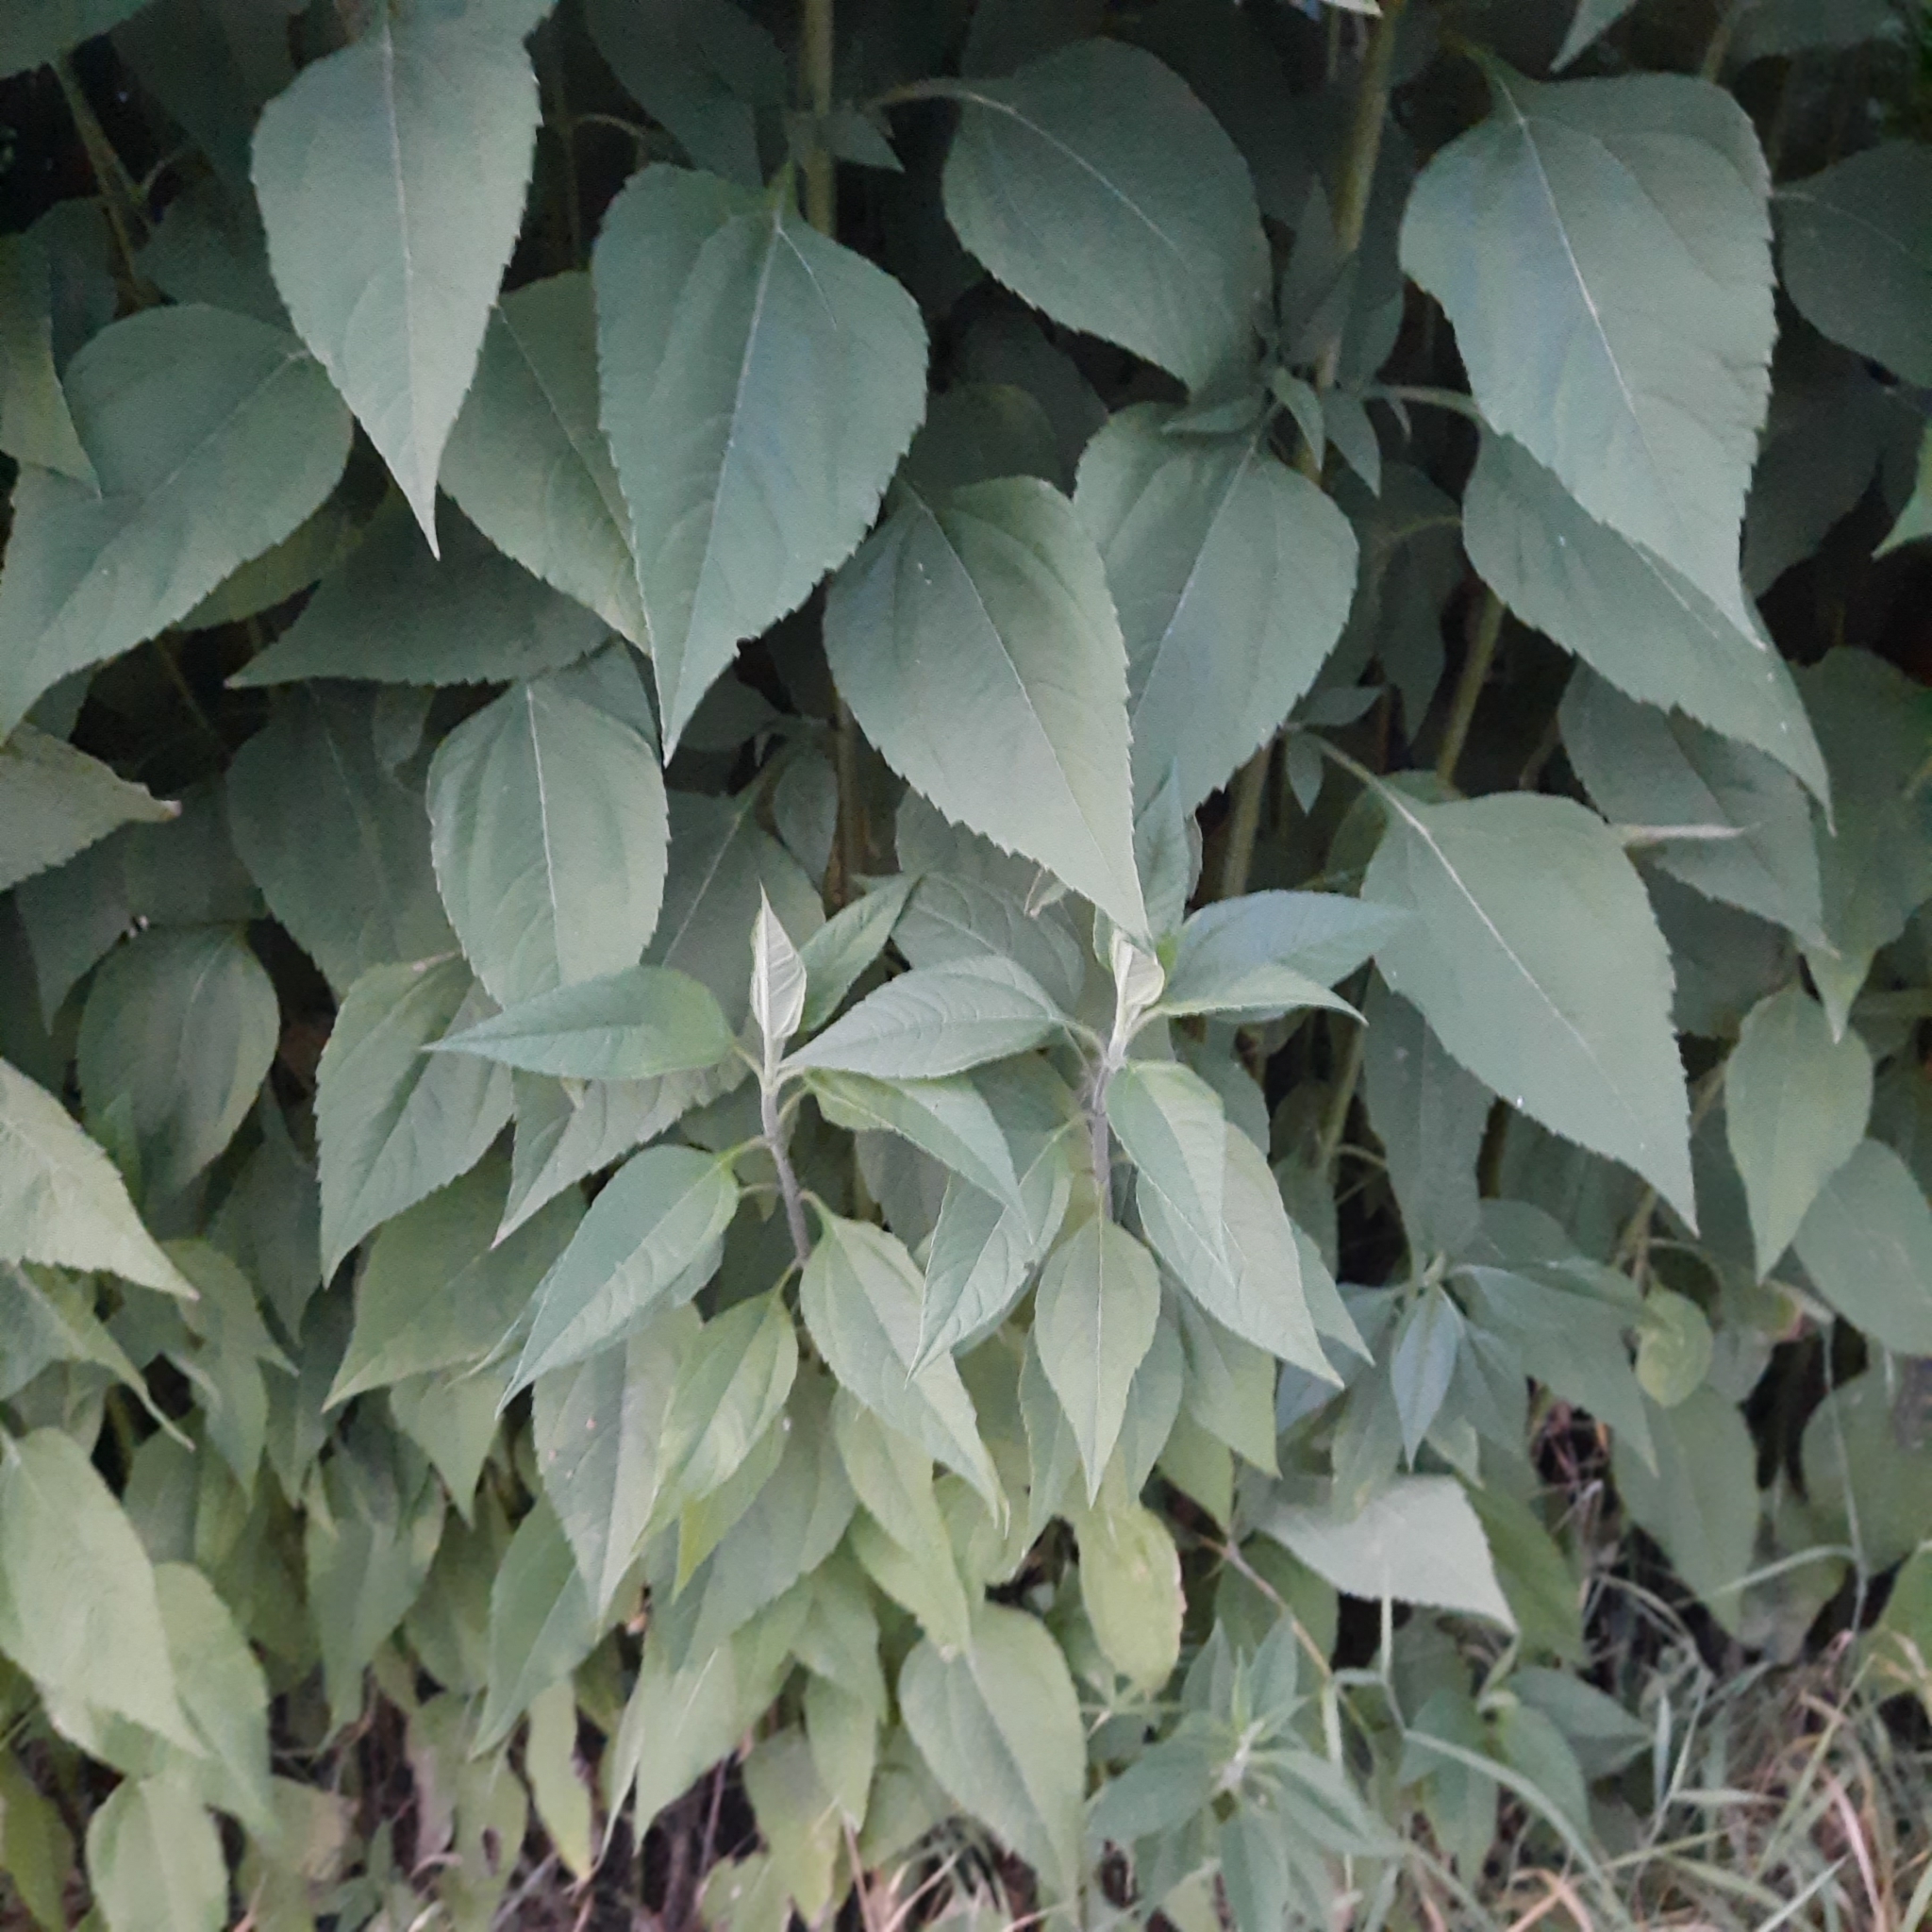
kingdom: Plantae
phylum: Tracheophyta
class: Magnoliopsida
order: Asterales
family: Asteraceae
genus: Helianthus
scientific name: Helianthus tuberosus
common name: Jerusalem artichoke
